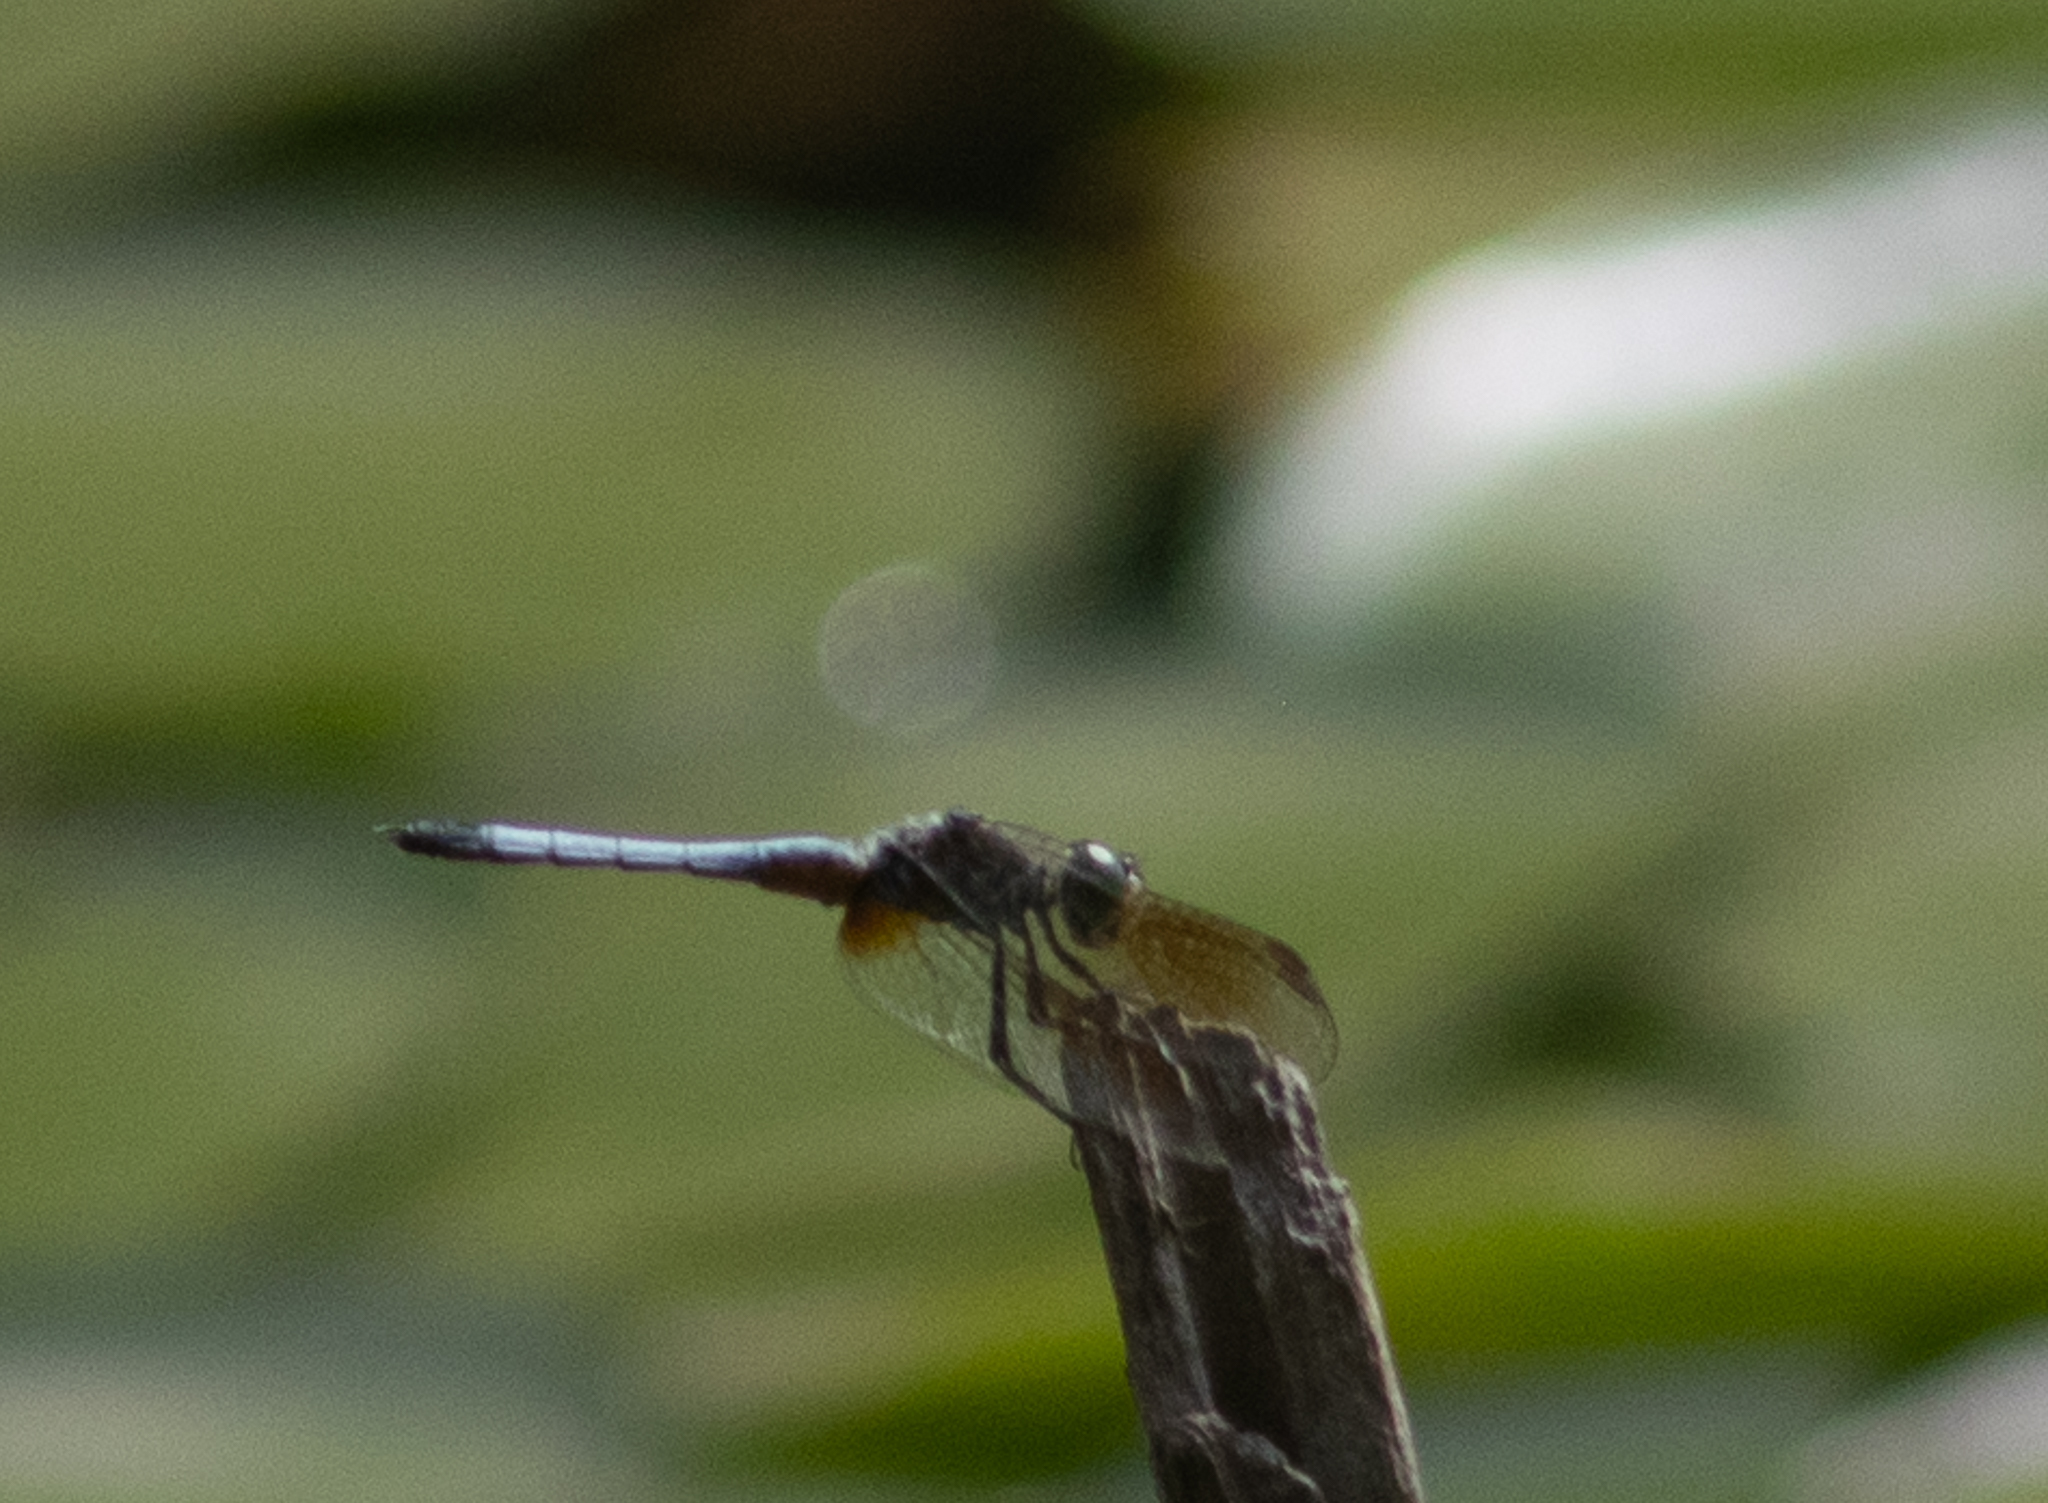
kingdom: Animalia
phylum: Arthropoda
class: Insecta
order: Odonata
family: Libellulidae
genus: Pachydiplax
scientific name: Pachydiplax longipennis
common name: Blue dasher
